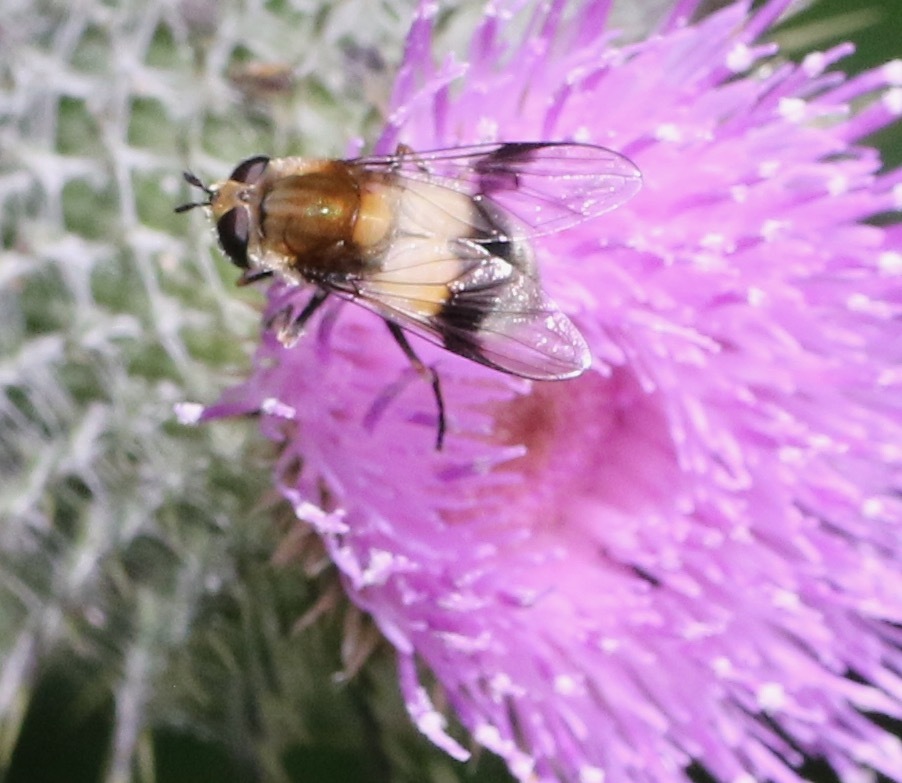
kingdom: Animalia
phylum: Arthropoda
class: Insecta
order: Diptera
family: Syrphidae
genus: Leucozona
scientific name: Leucozona lucorum
